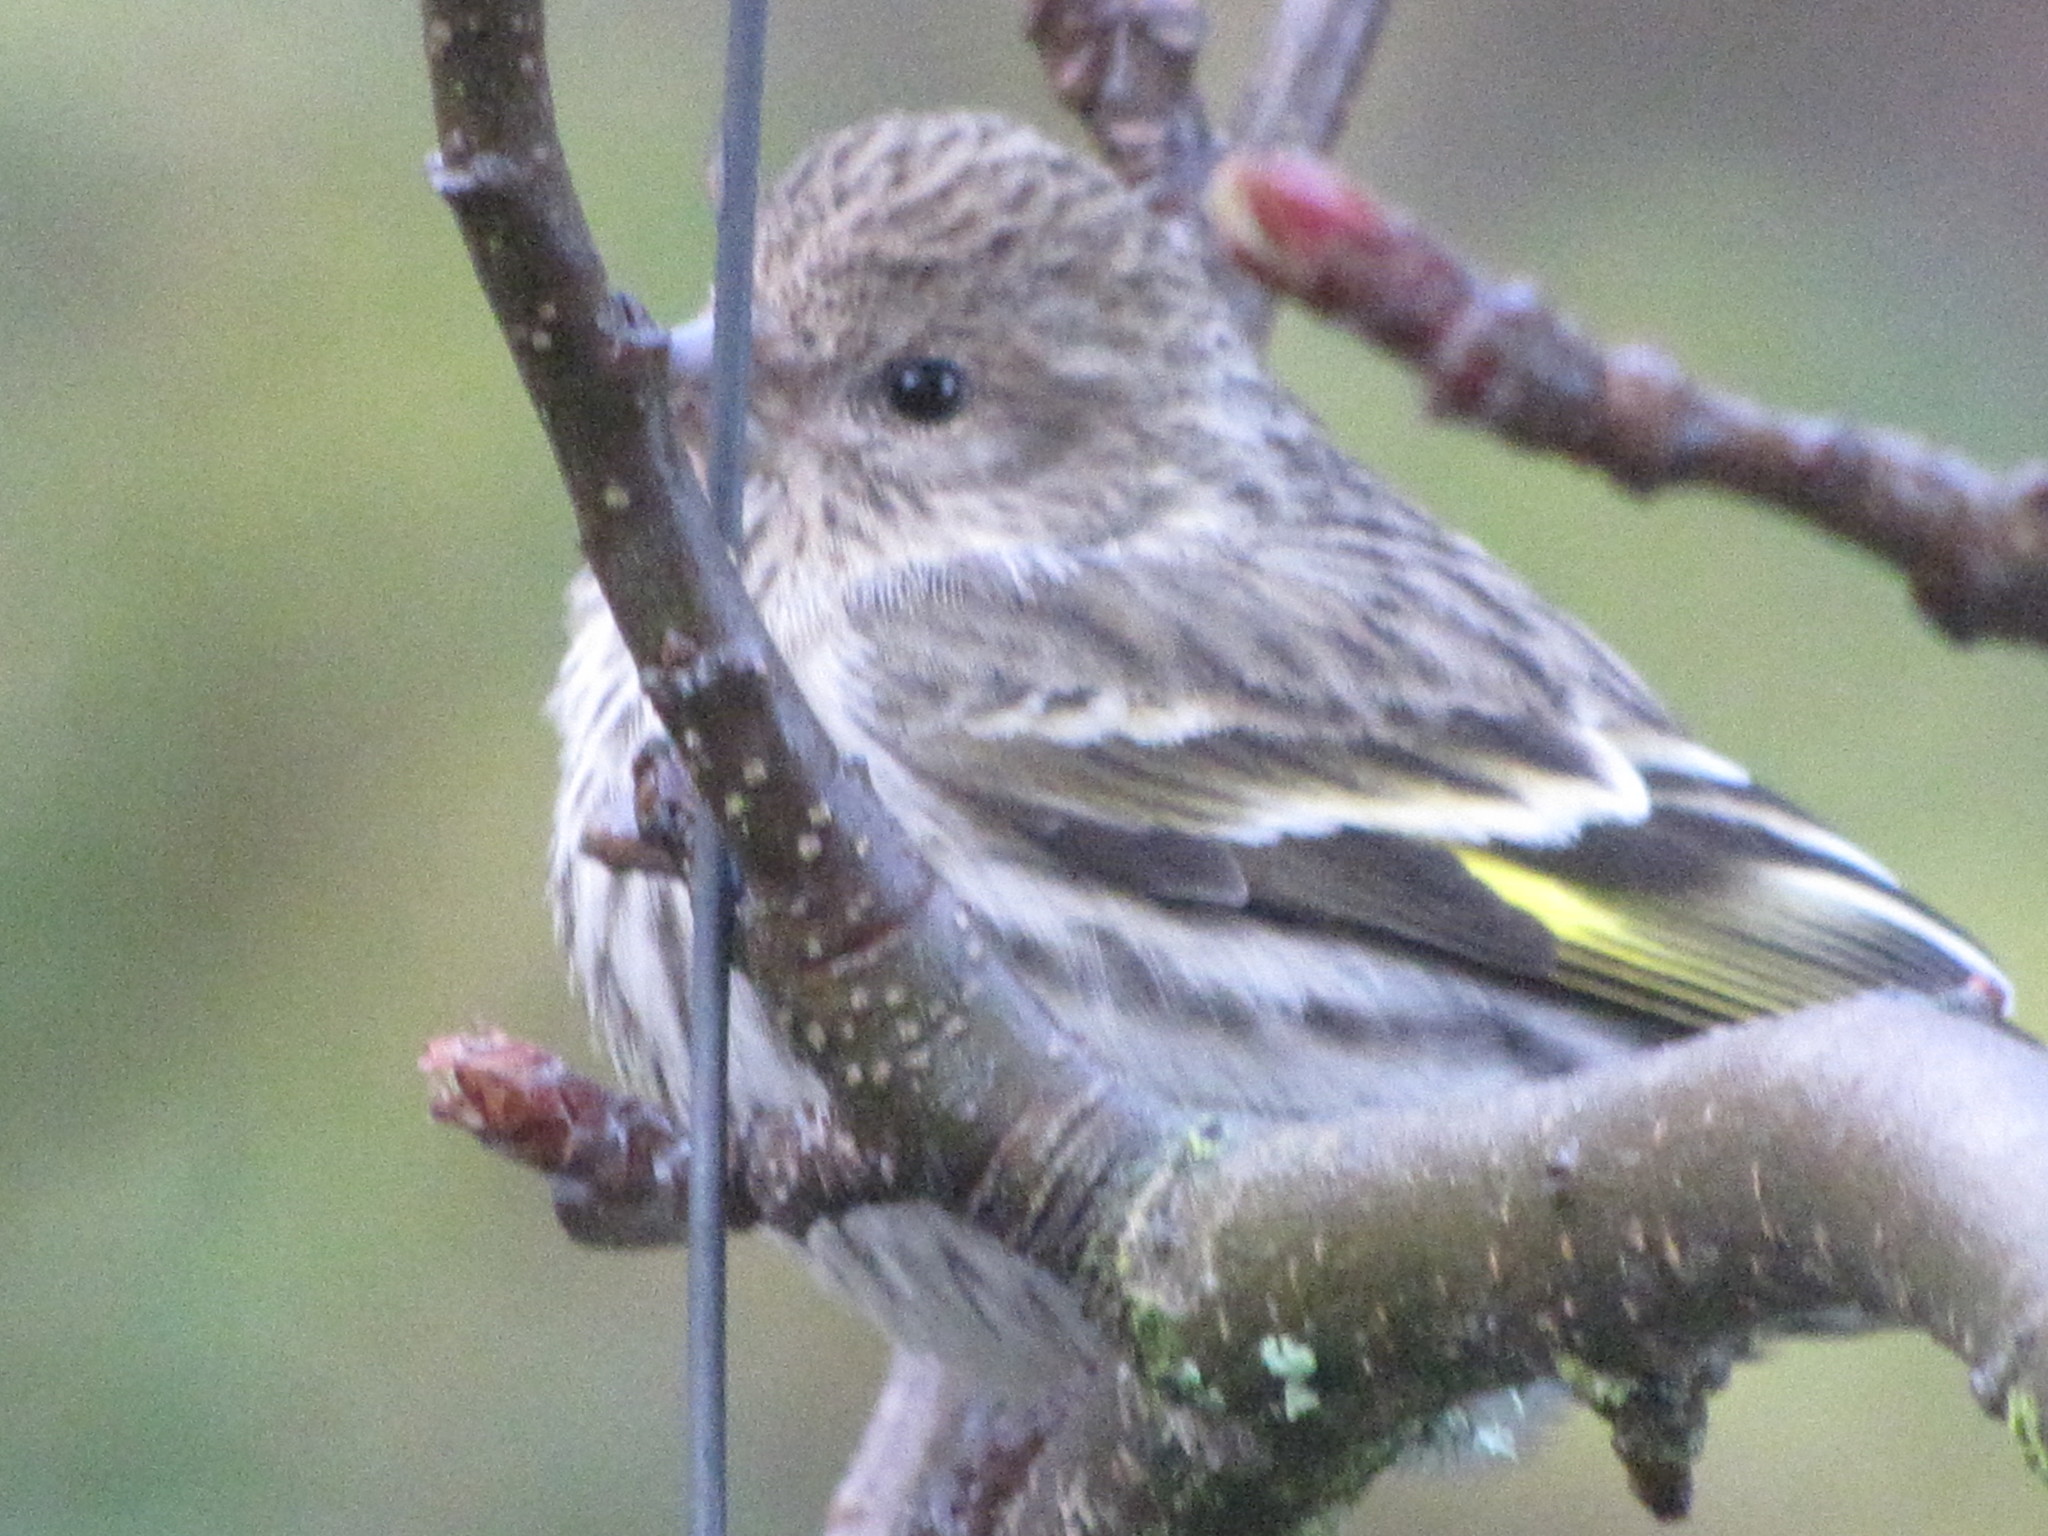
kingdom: Animalia
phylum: Chordata
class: Aves
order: Passeriformes
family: Fringillidae
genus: Spinus
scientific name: Spinus pinus
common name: Pine siskin
